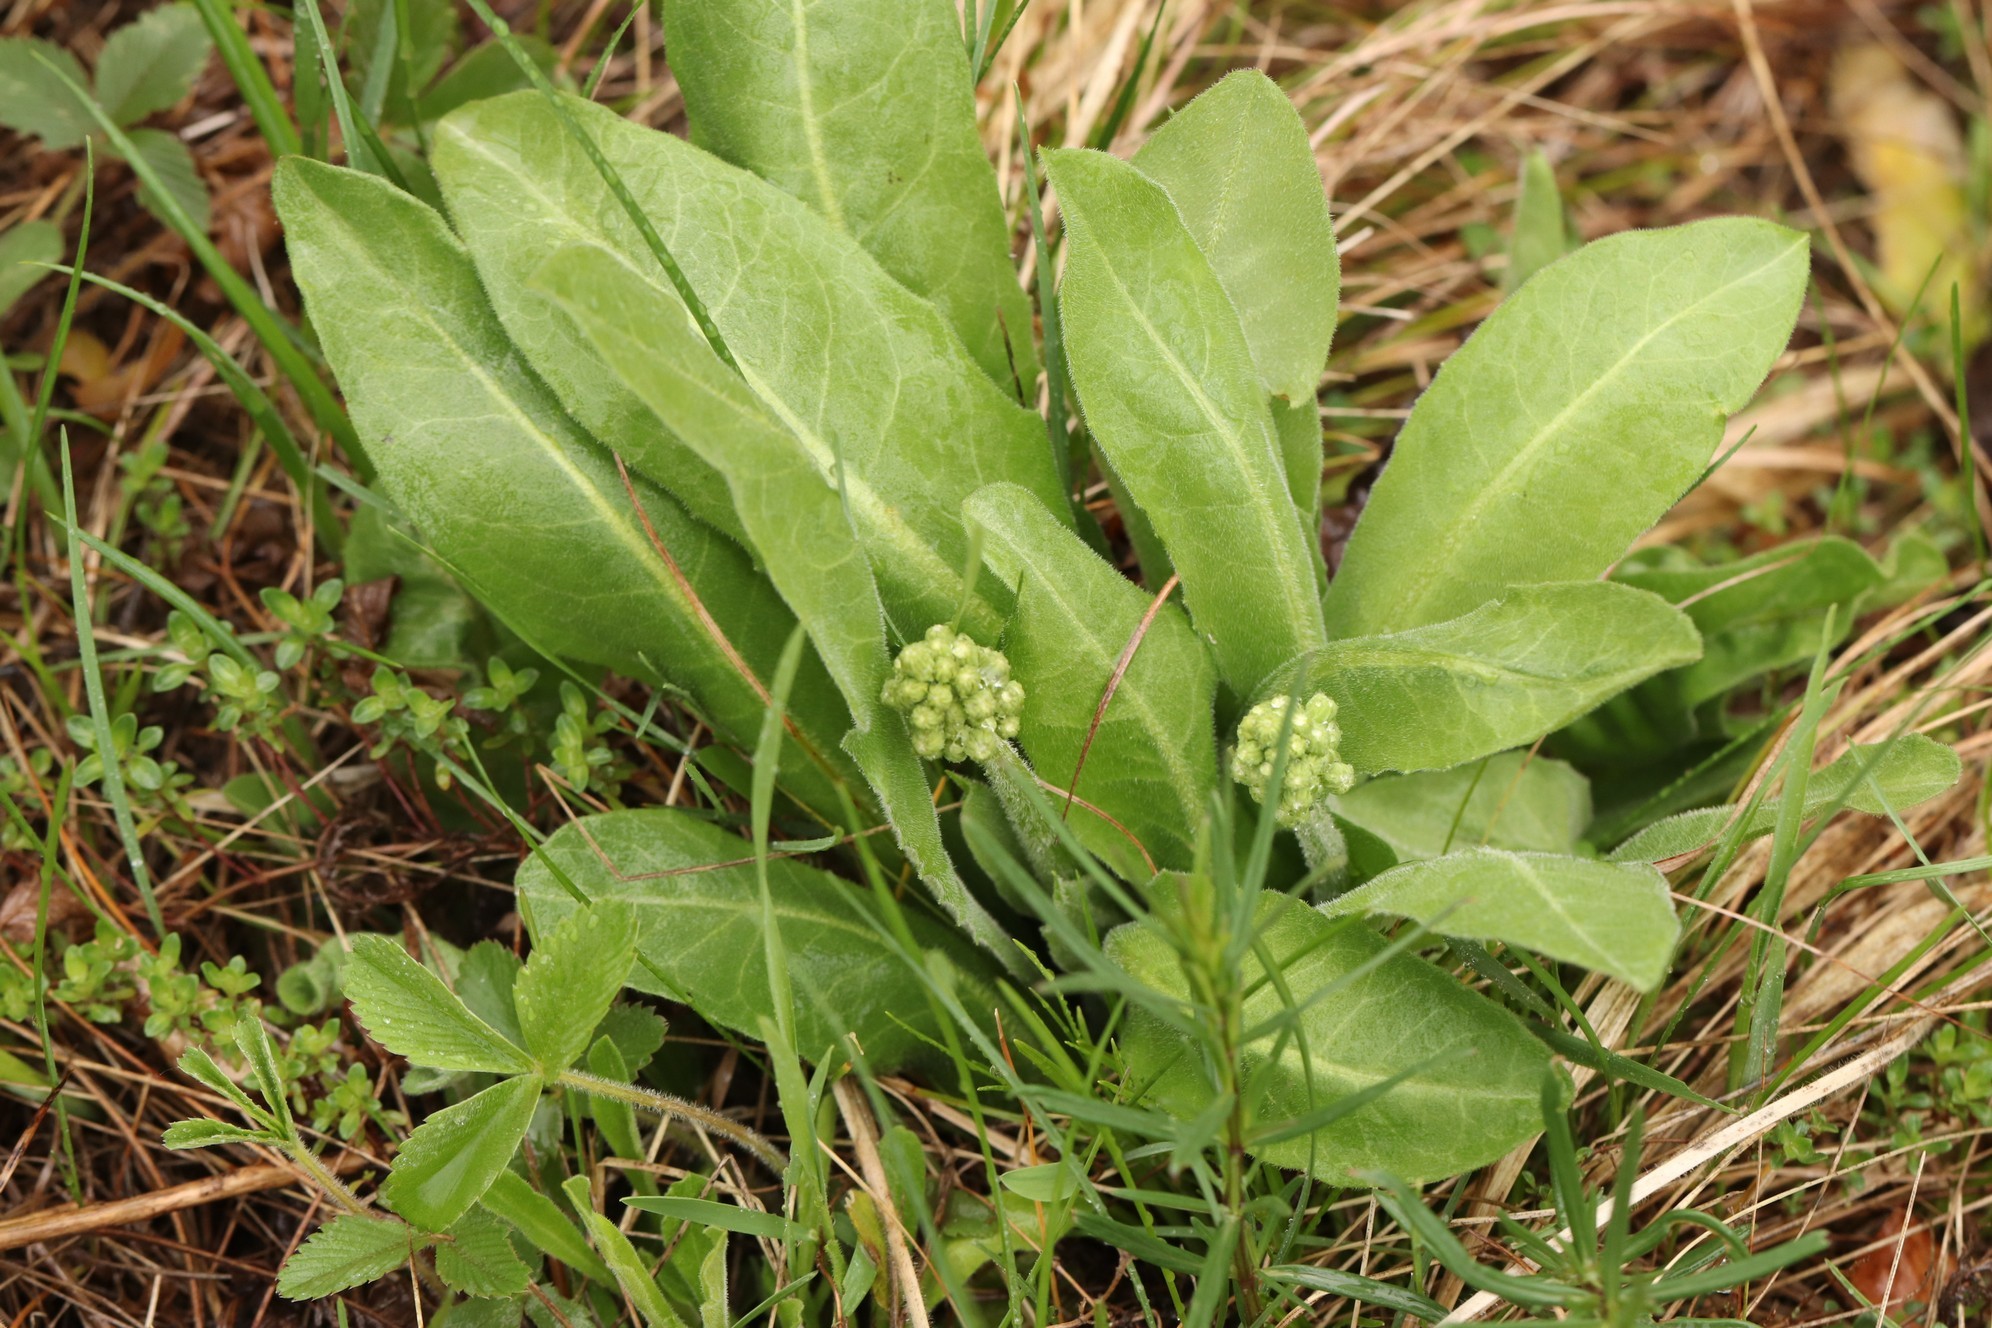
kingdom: Plantae
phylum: Tracheophyta
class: Magnoliopsida
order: Asterales
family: Asteraceae
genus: Crepis
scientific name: Crepis praemorsa
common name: Leafless hawk's-beard
